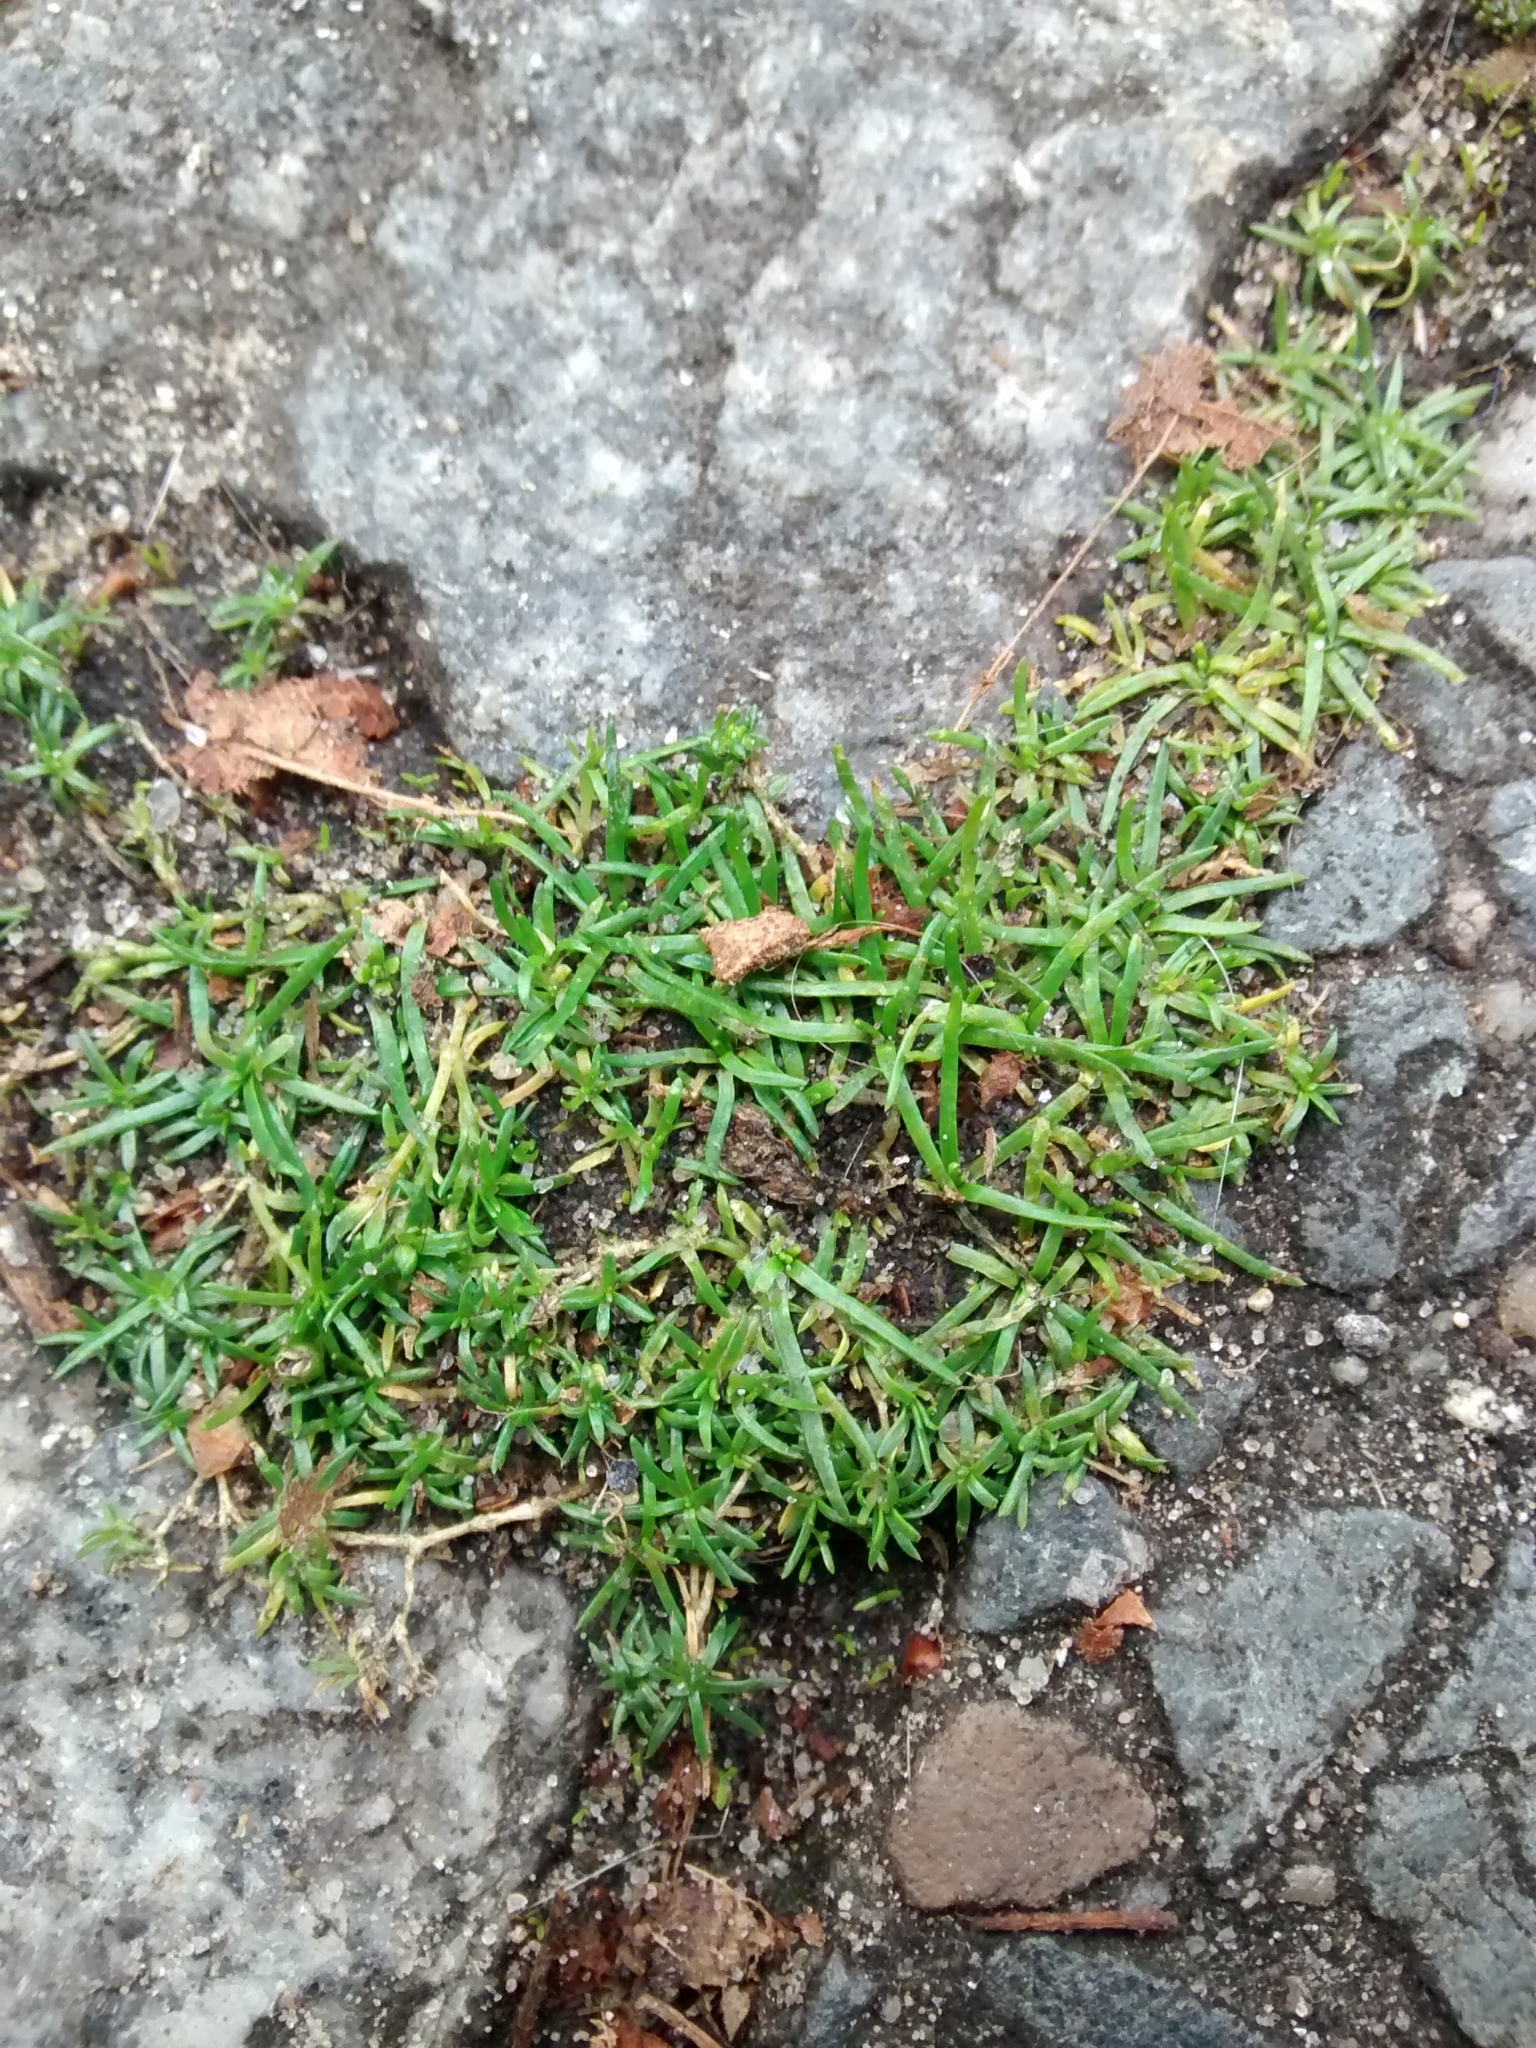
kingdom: Plantae
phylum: Tracheophyta
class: Magnoliopsida
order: Caryophyllales
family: Caryophyllaceae
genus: Sagina
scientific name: Sagina procumbens
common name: Procumbent pearlwort
